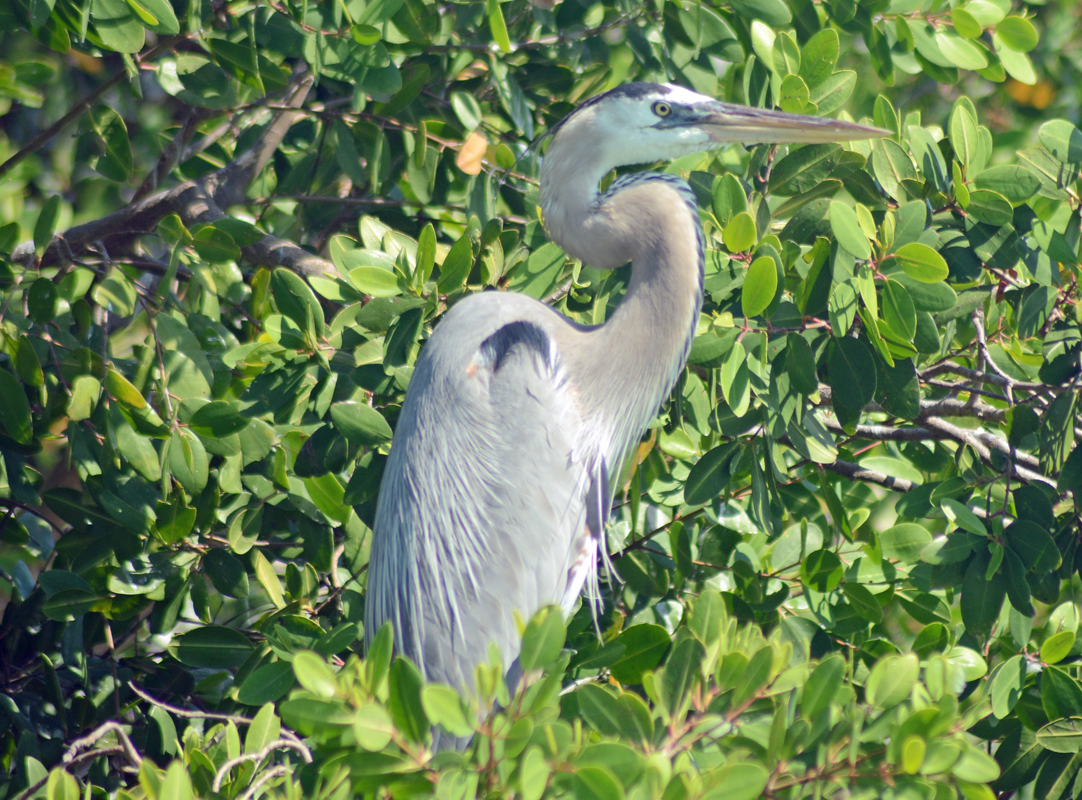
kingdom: Animalia
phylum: Chordata
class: Aves
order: Pelecaniformes
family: Ardeidae
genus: Ardea
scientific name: Ardea herodias
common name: Great blue heron
